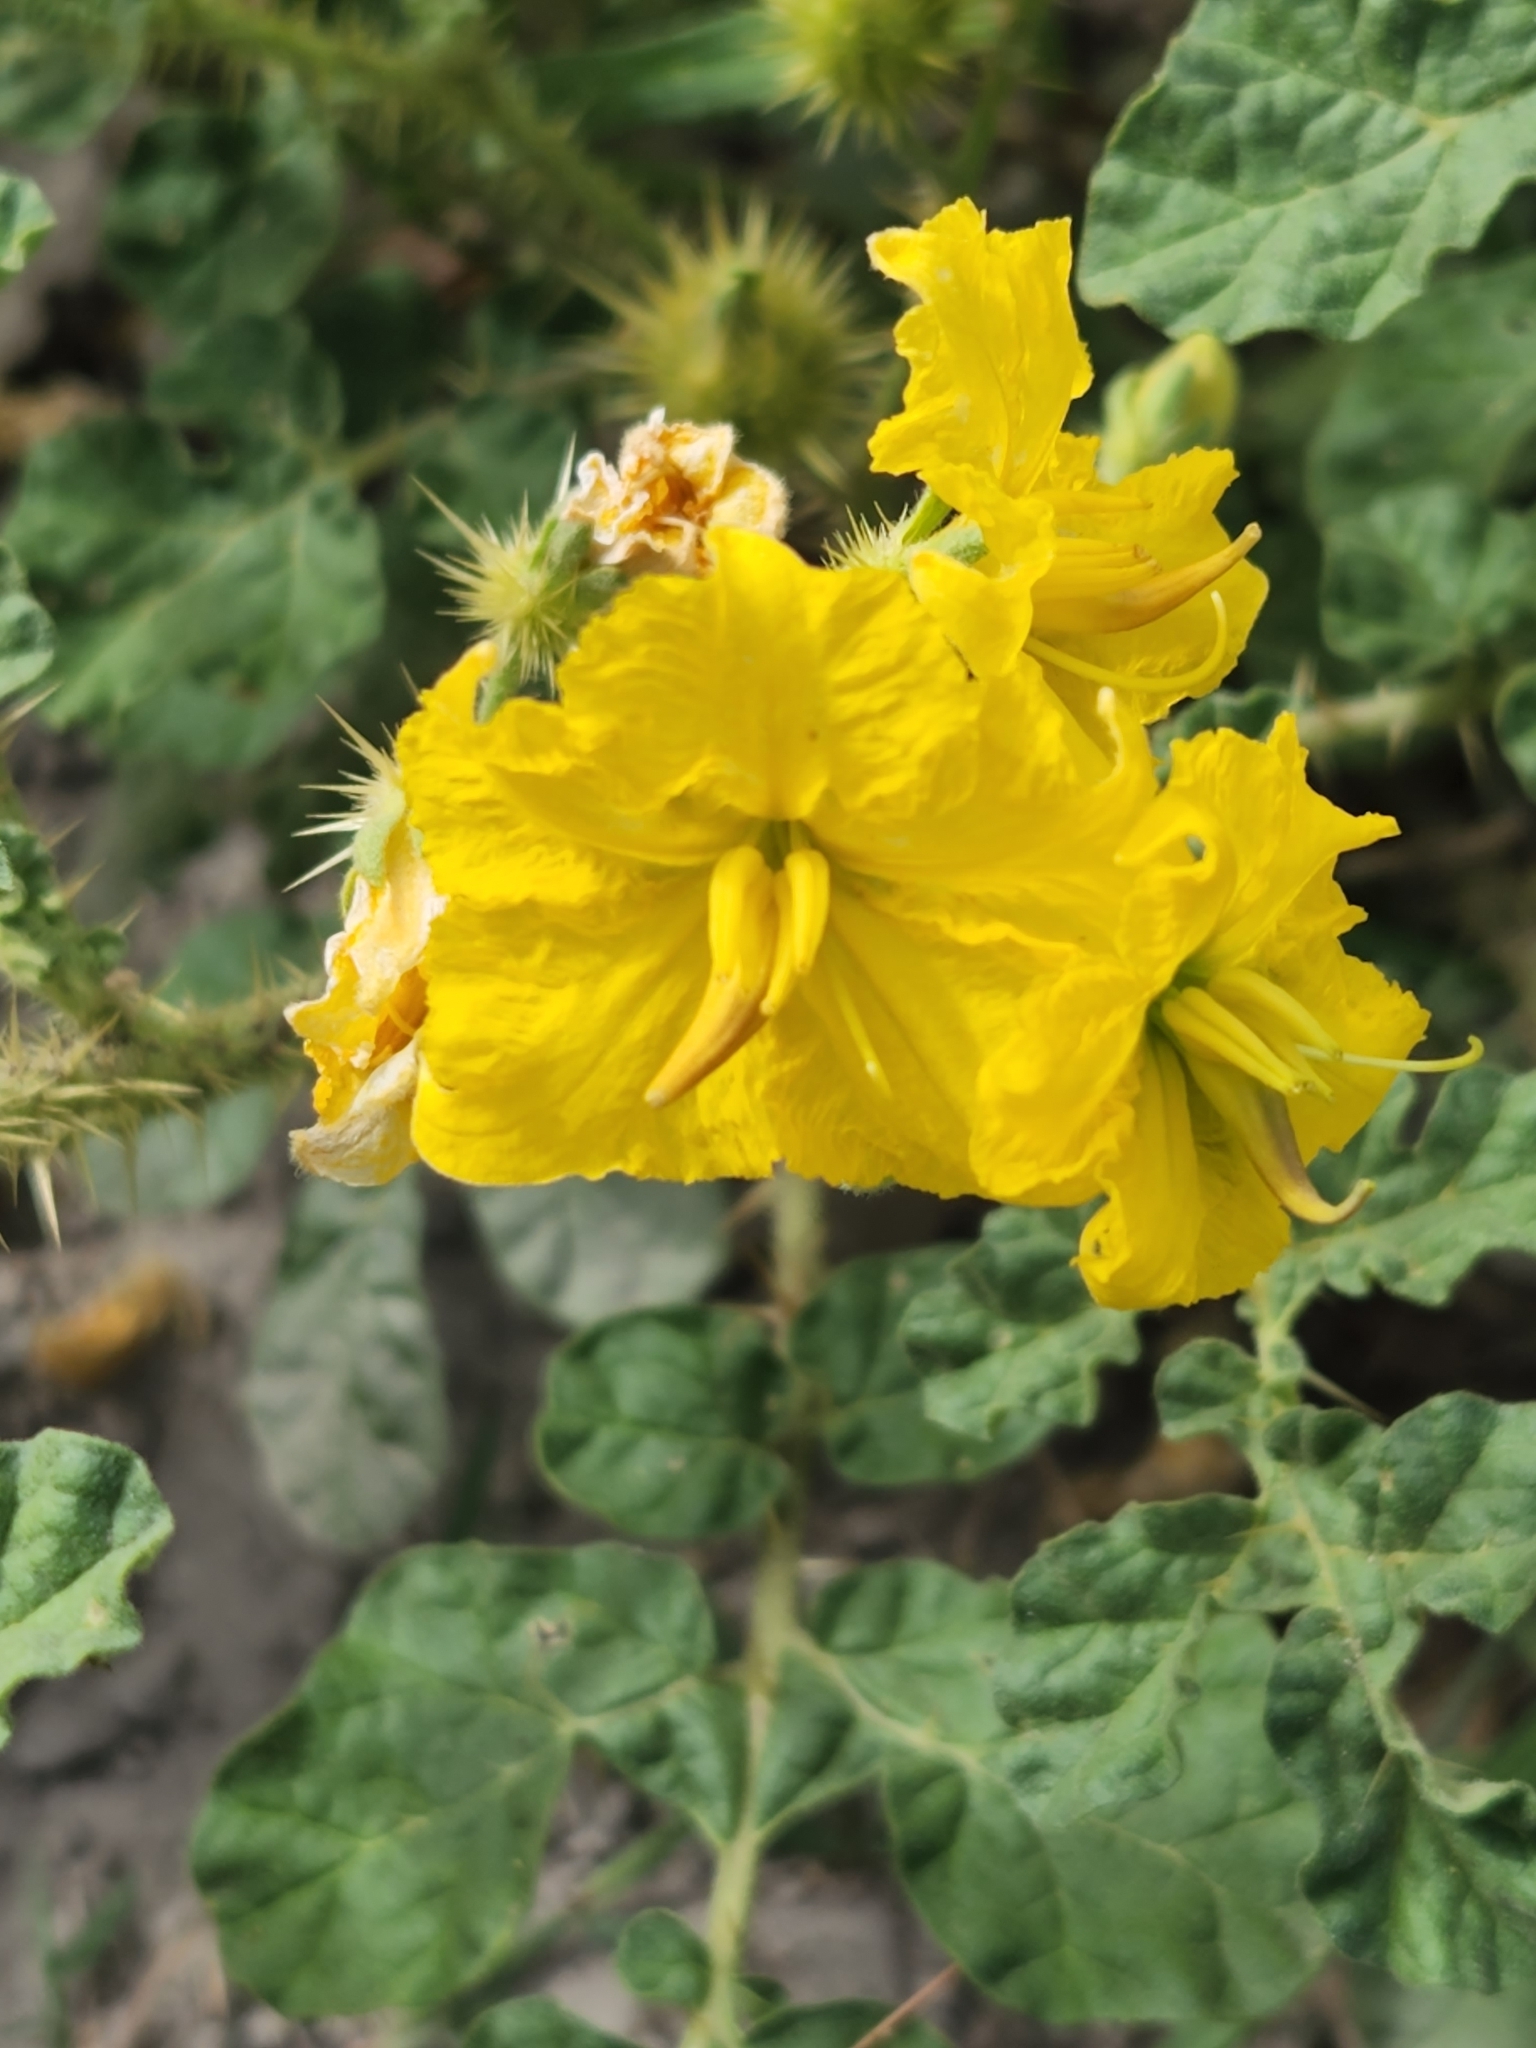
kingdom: Plantae
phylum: Tracheophyta
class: Magnoliopsida
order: Solanales
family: Solanaceae
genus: Solanum
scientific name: Solanum angustifolium
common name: Buffalobur nightshade
